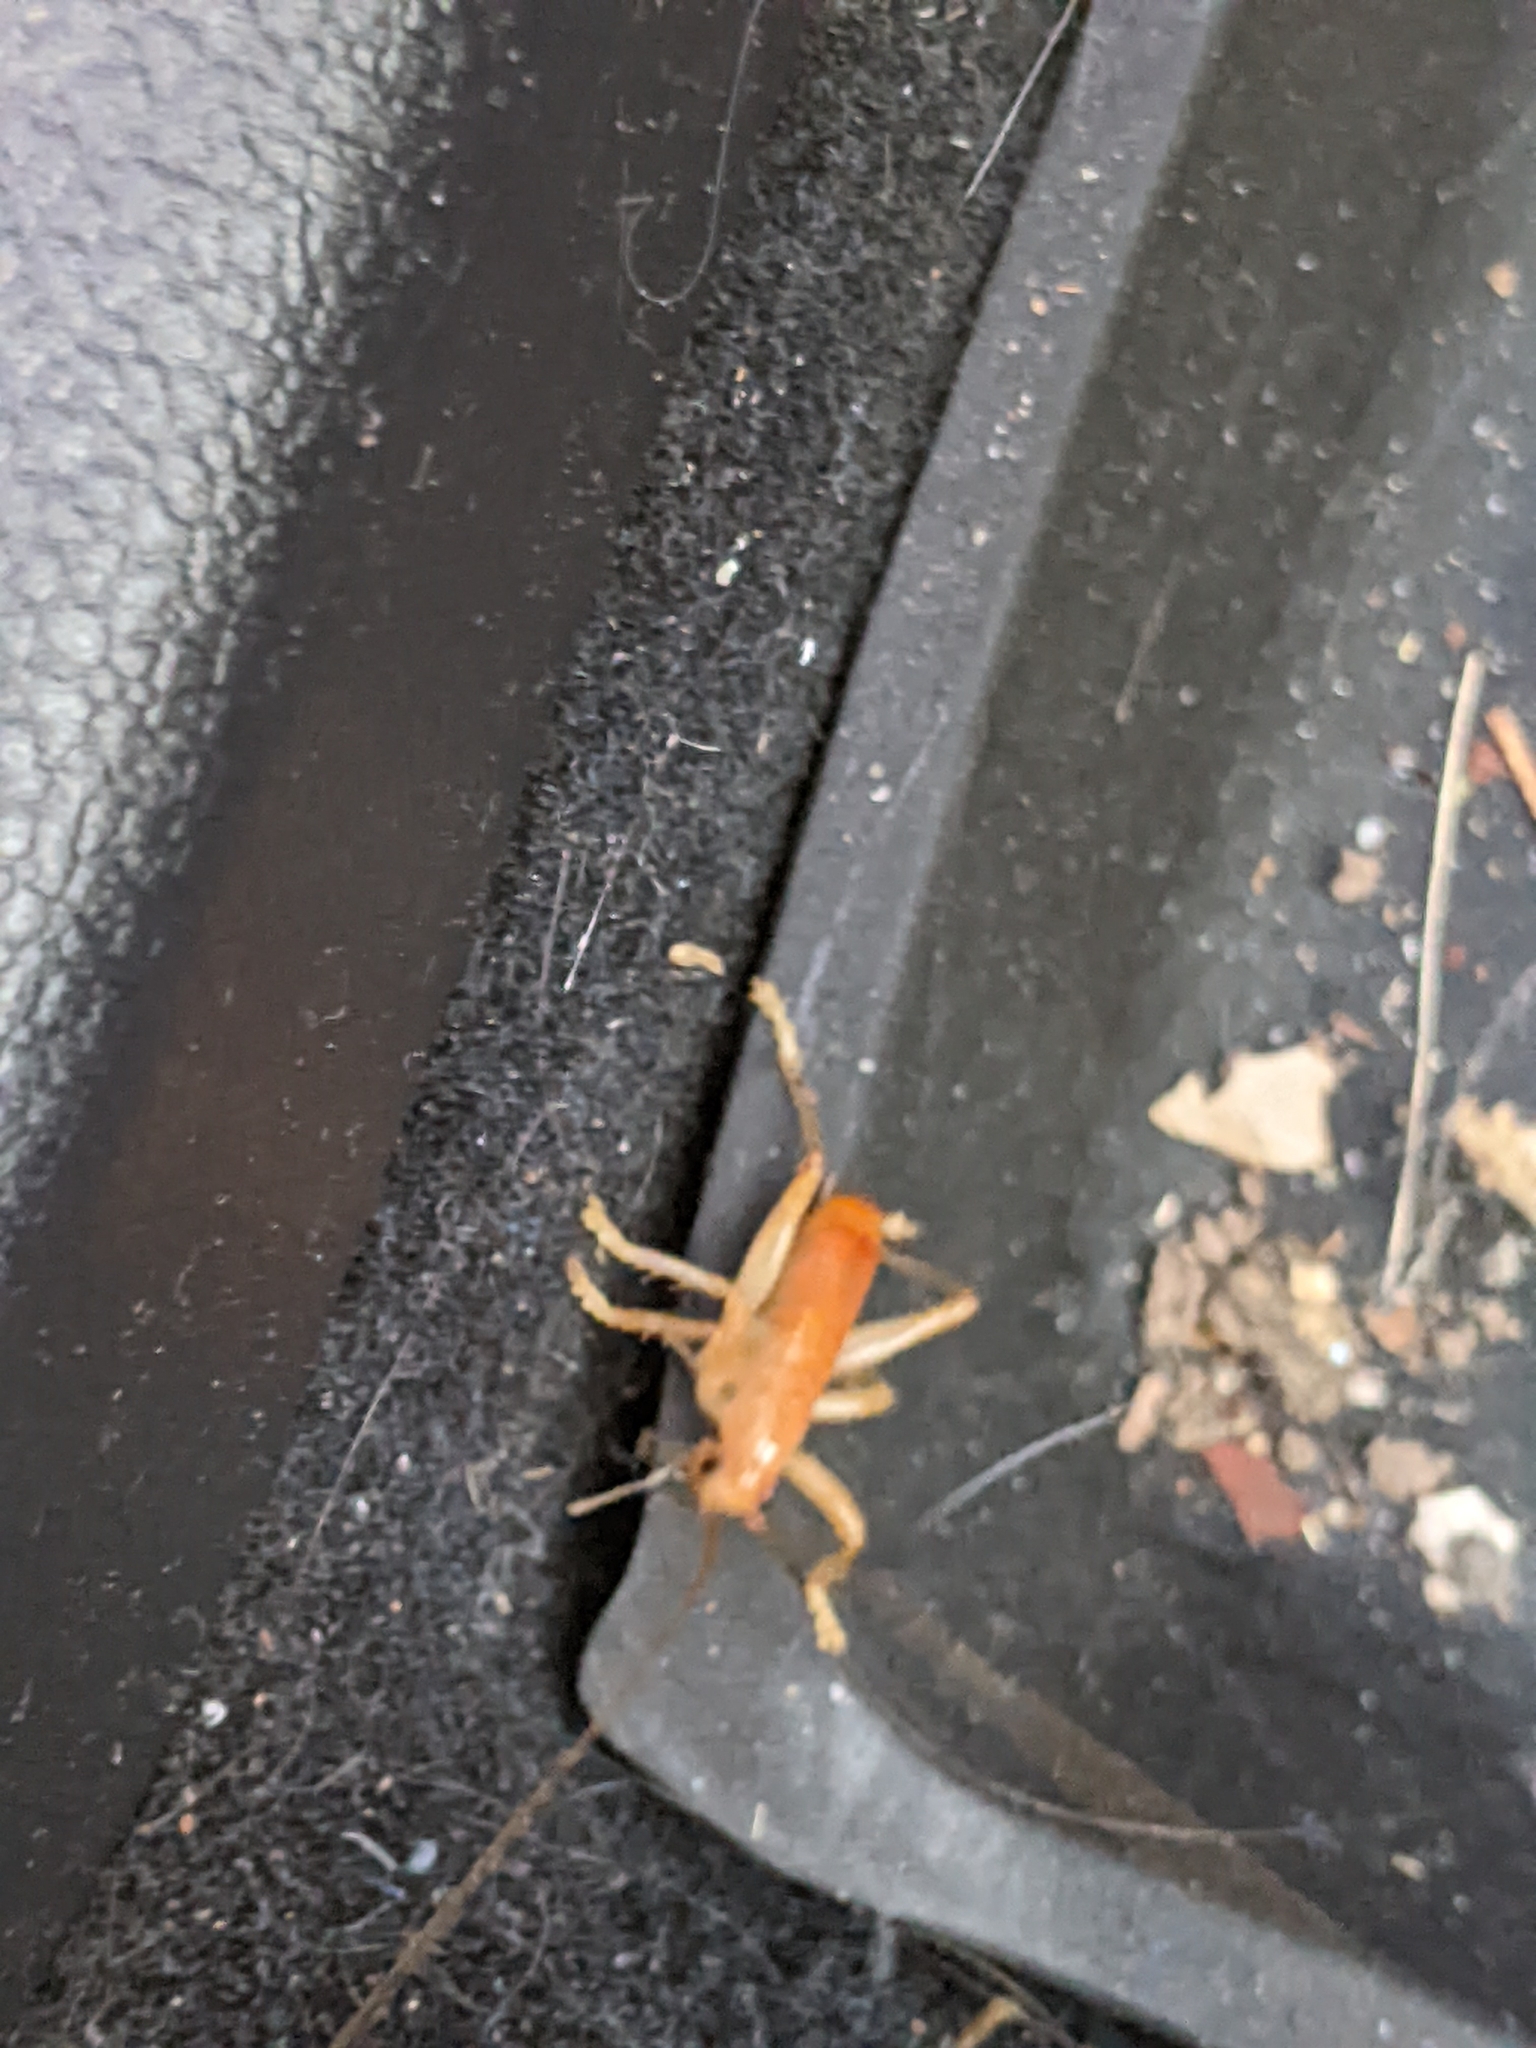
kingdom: Animalia
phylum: Arthropoda
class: Insecta
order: Orthoptera
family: Gryllacrididae
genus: Camptonotus
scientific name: Camptonotus carolinensis
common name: Carolina leaf-roller
